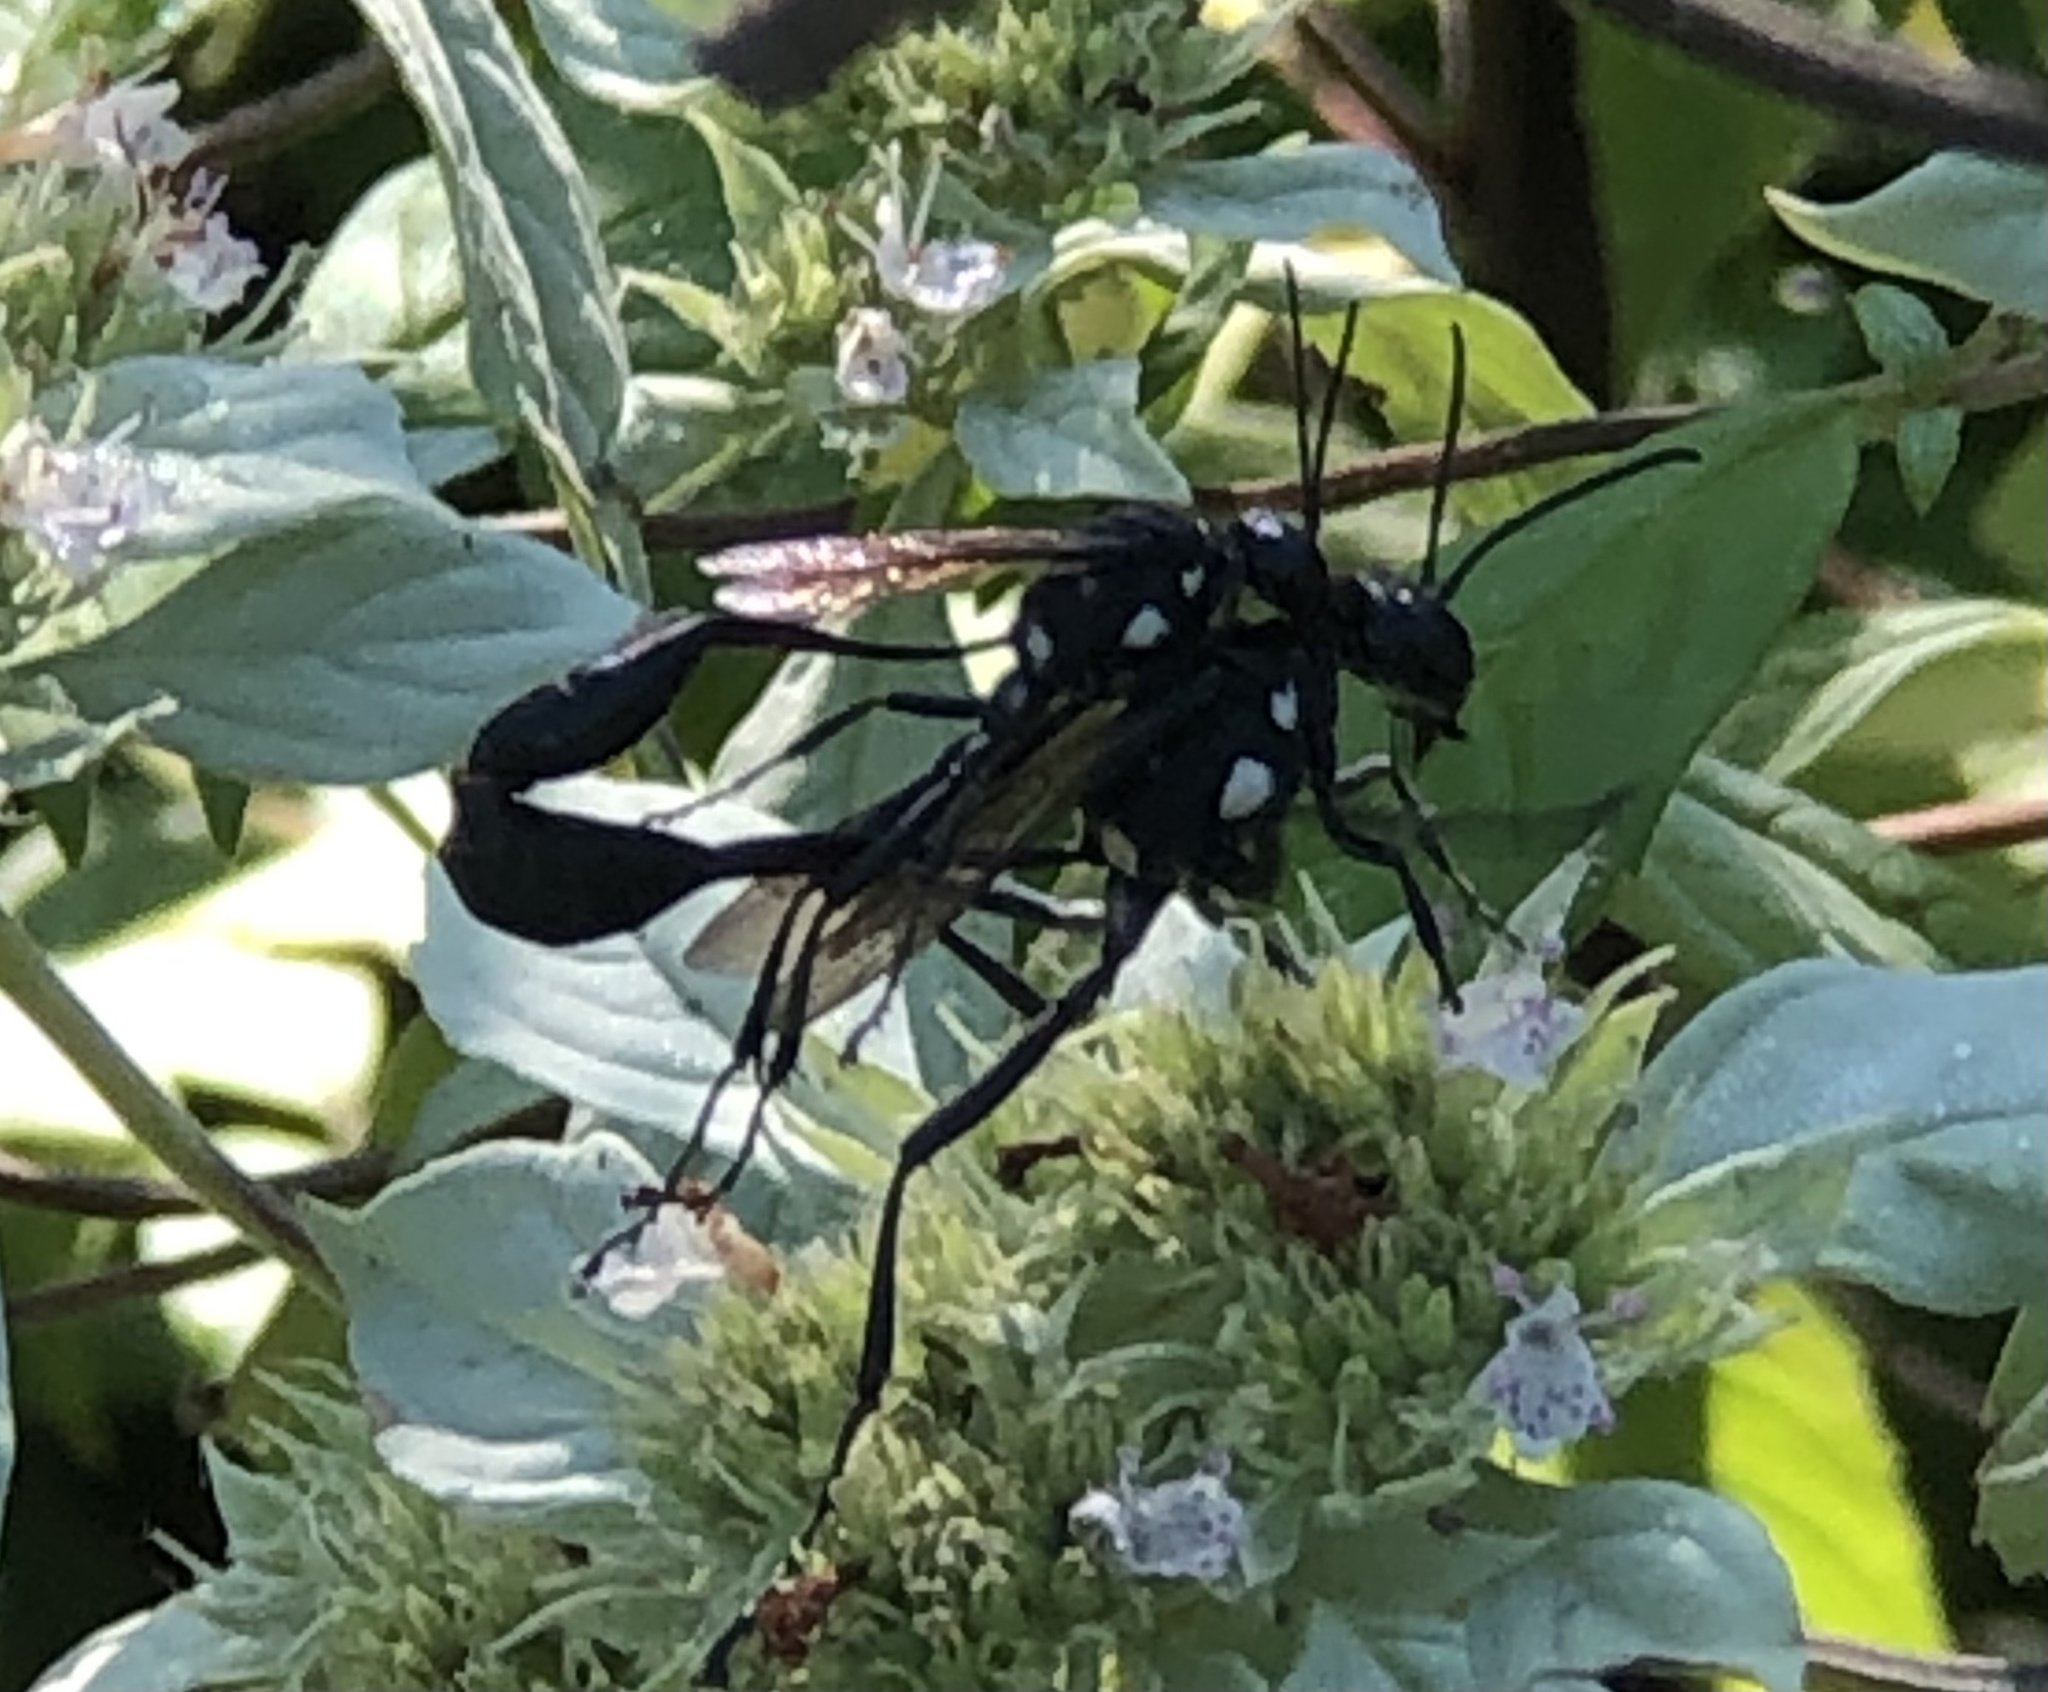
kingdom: Animalia
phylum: Arthropoda
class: Insecta
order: Hymenoptera
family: Sphecidae
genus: Eremnophila
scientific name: Eremnophila aureonotata
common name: Gold-marked thread-waisted wasp
